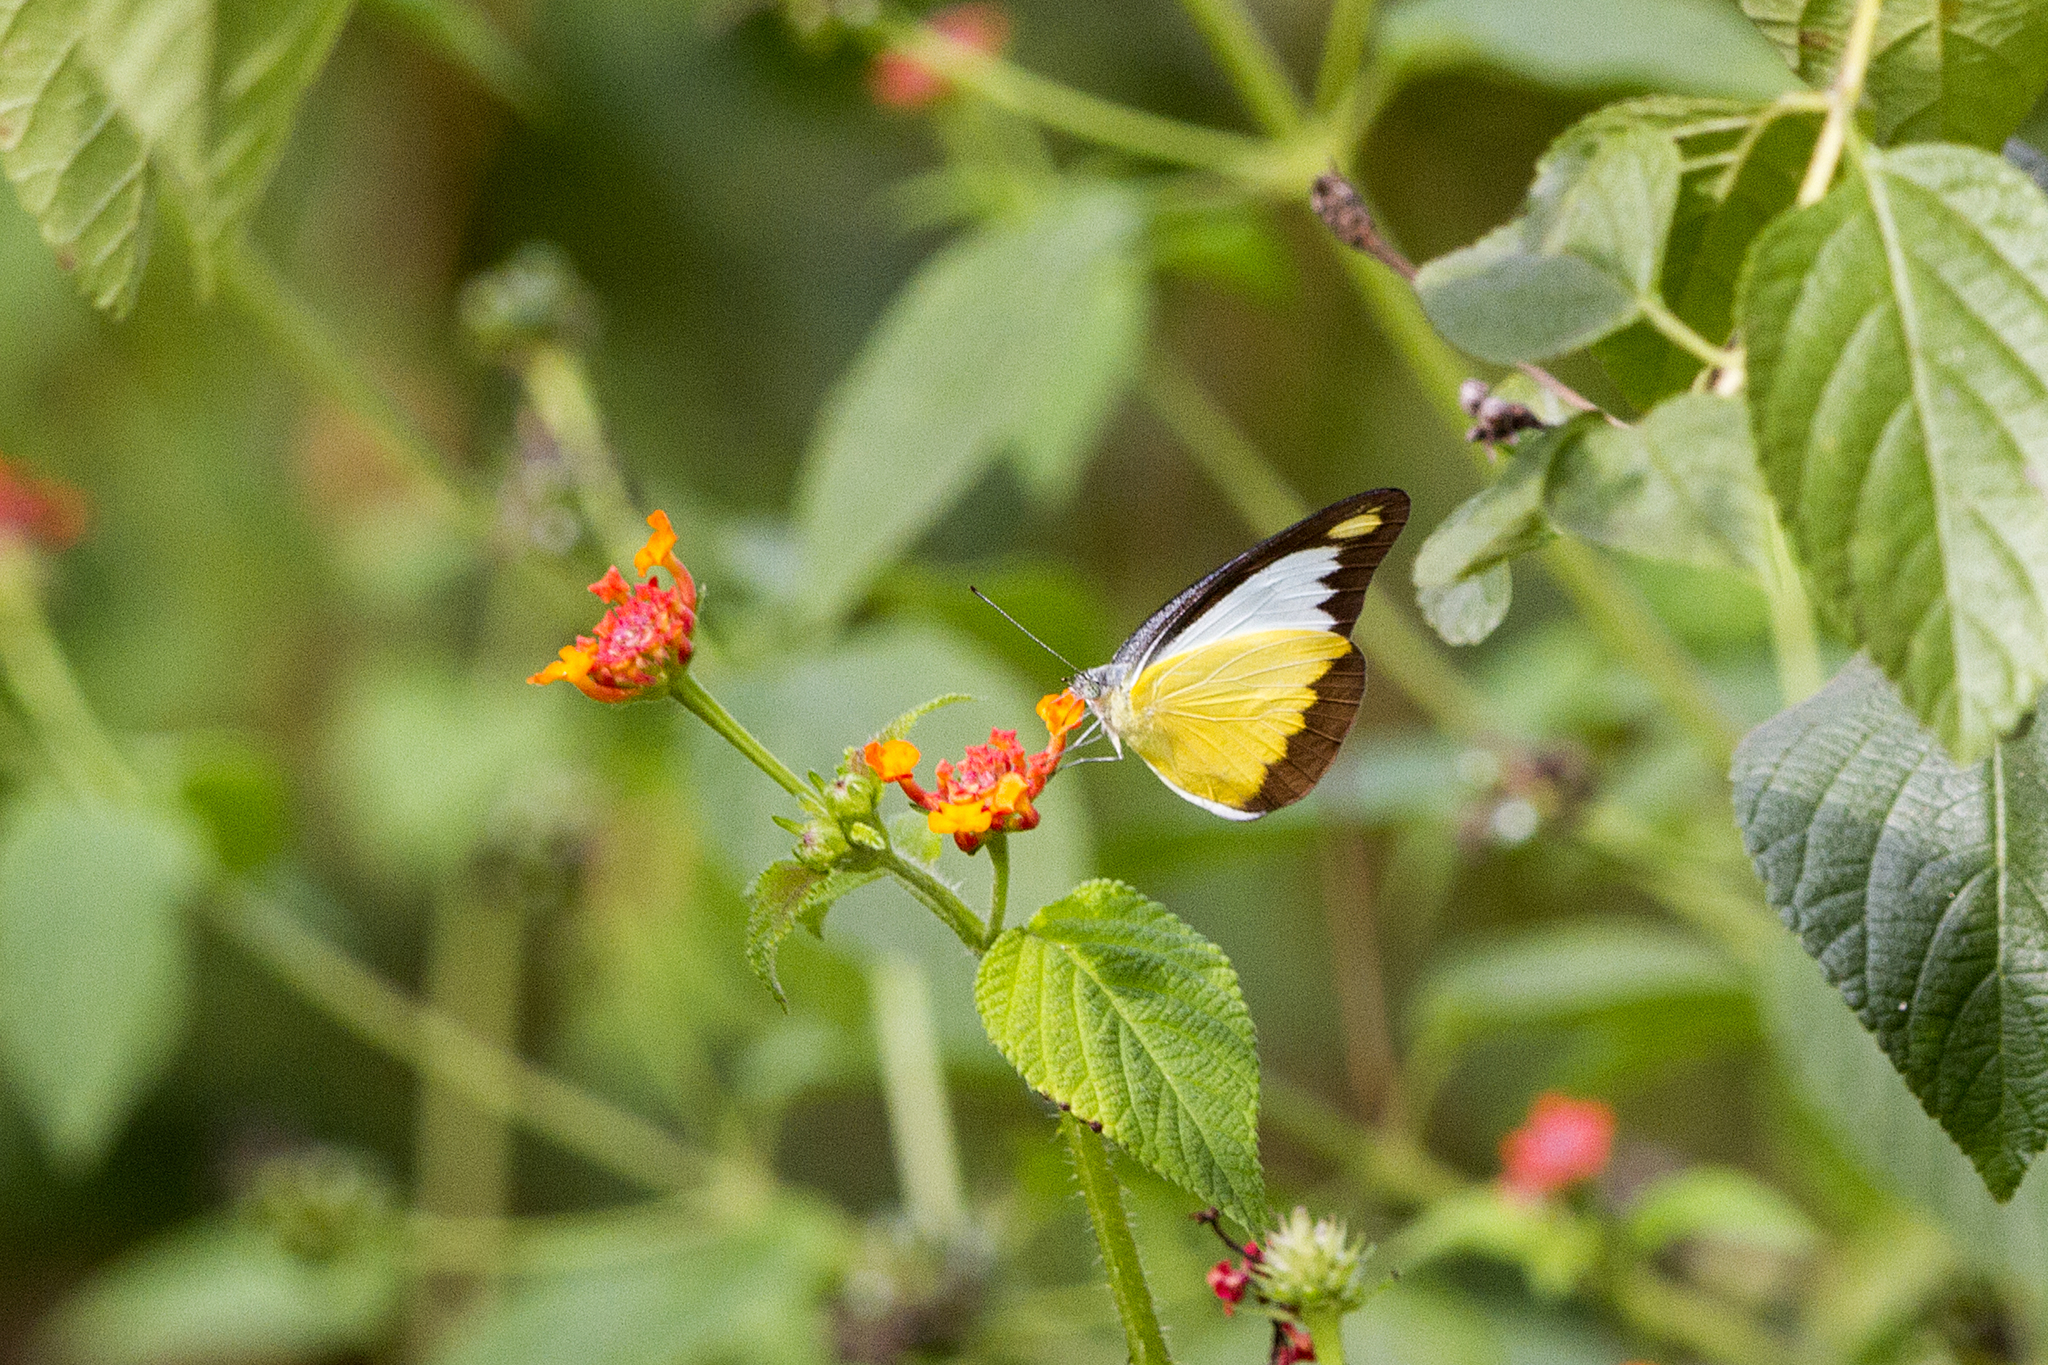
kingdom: Animalia
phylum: Arthropoda
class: Insecta
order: Lepidoptera
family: Pieridae
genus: Appias
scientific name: Appias lyncida
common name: Chocolate albatross
